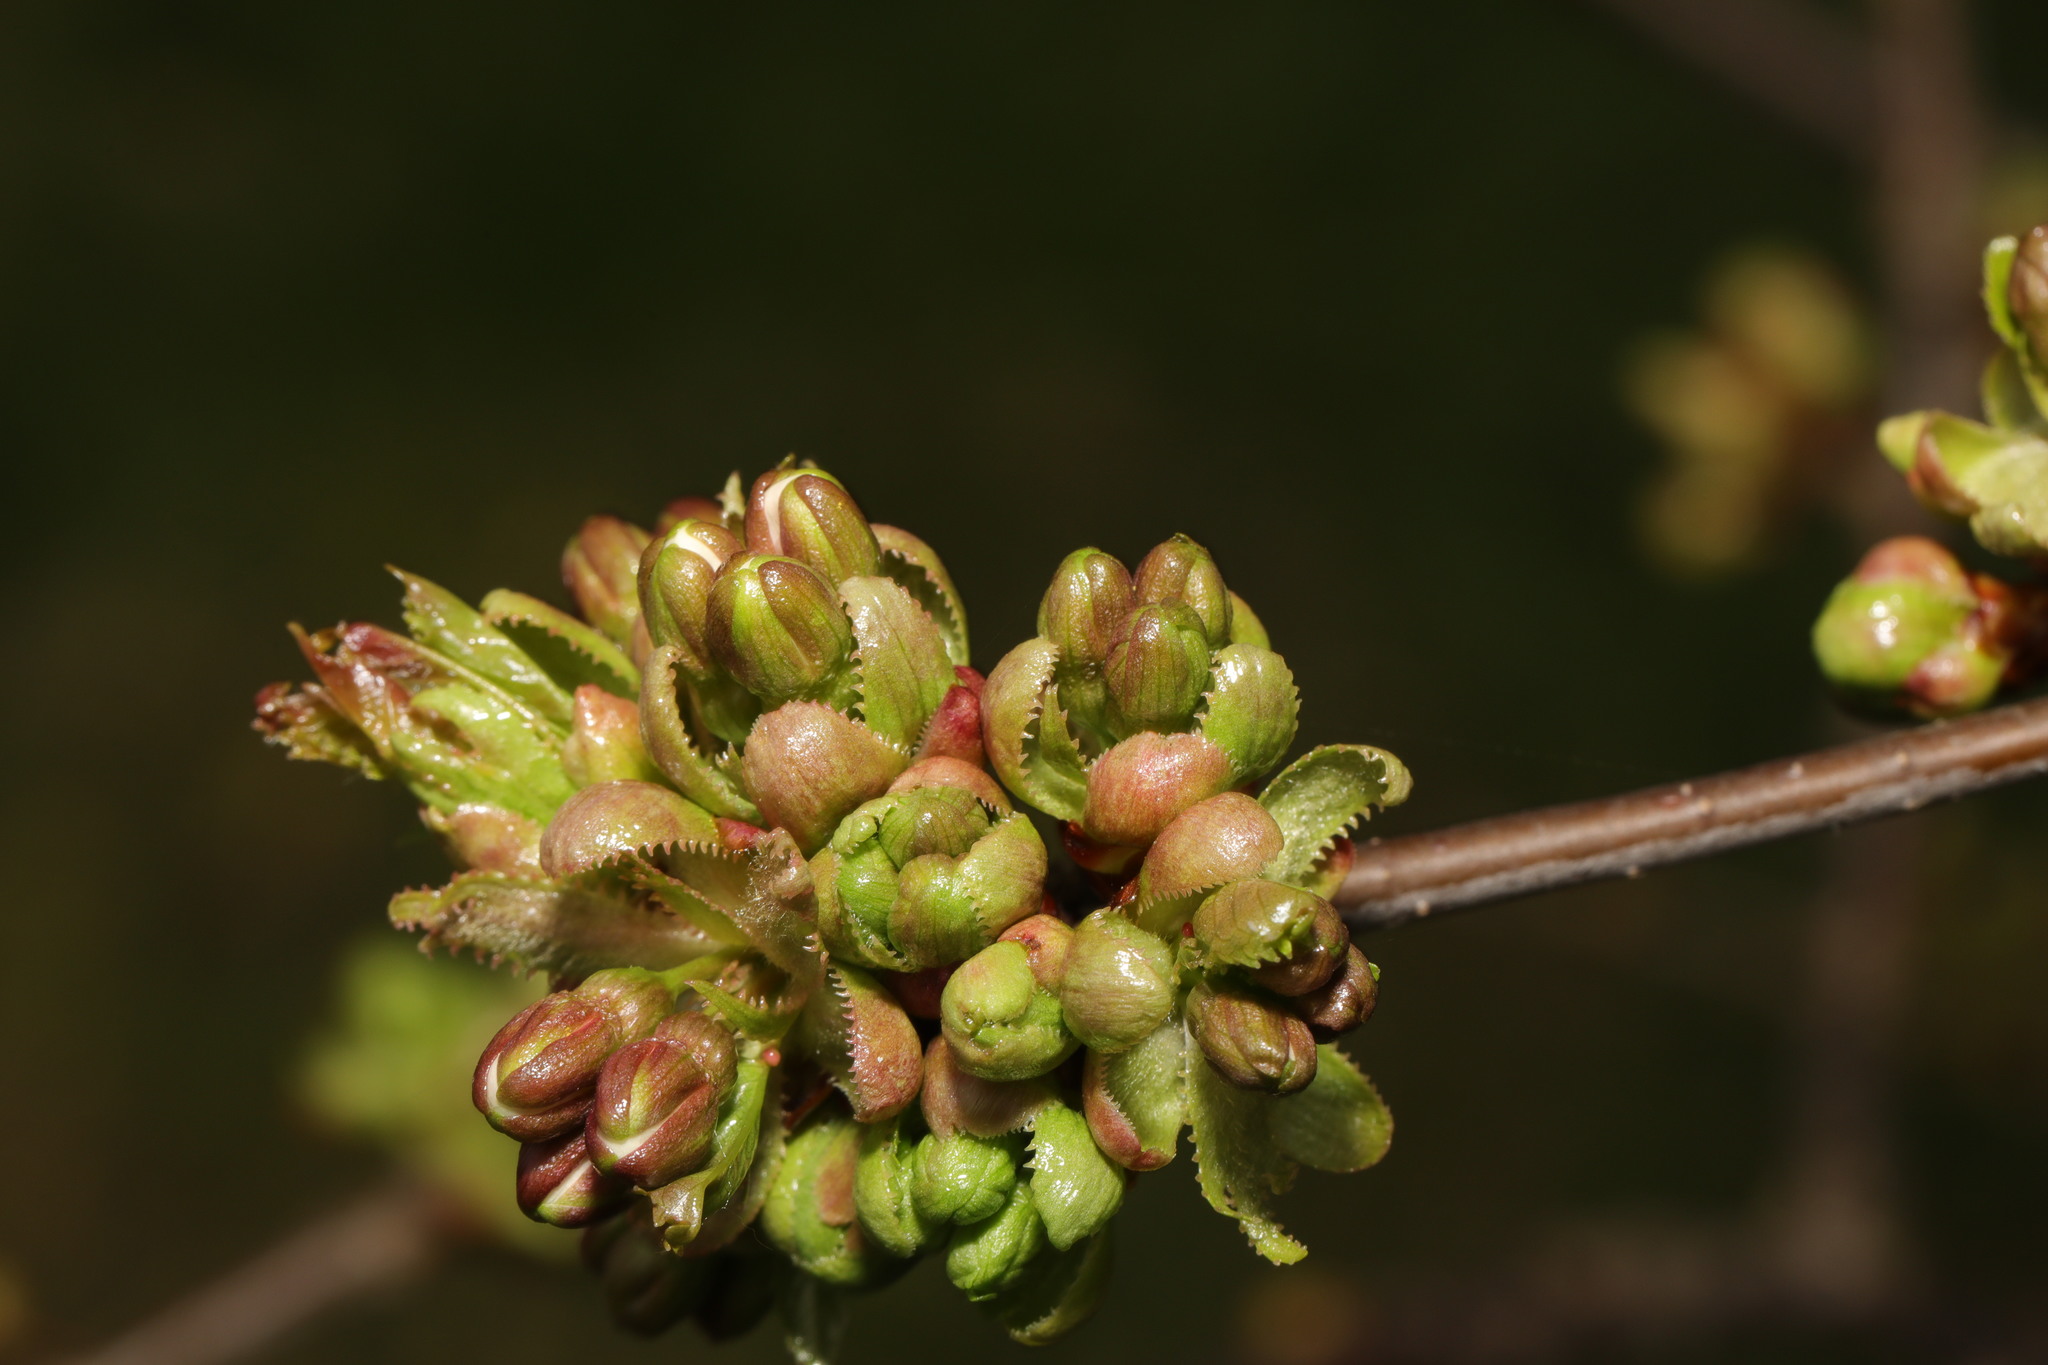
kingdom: Plantae
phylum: Tracheophyta
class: Magnoliopsida
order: Rosales
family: Rosaceae
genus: Prunus
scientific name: Prunus avium
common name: Sweet cherry
